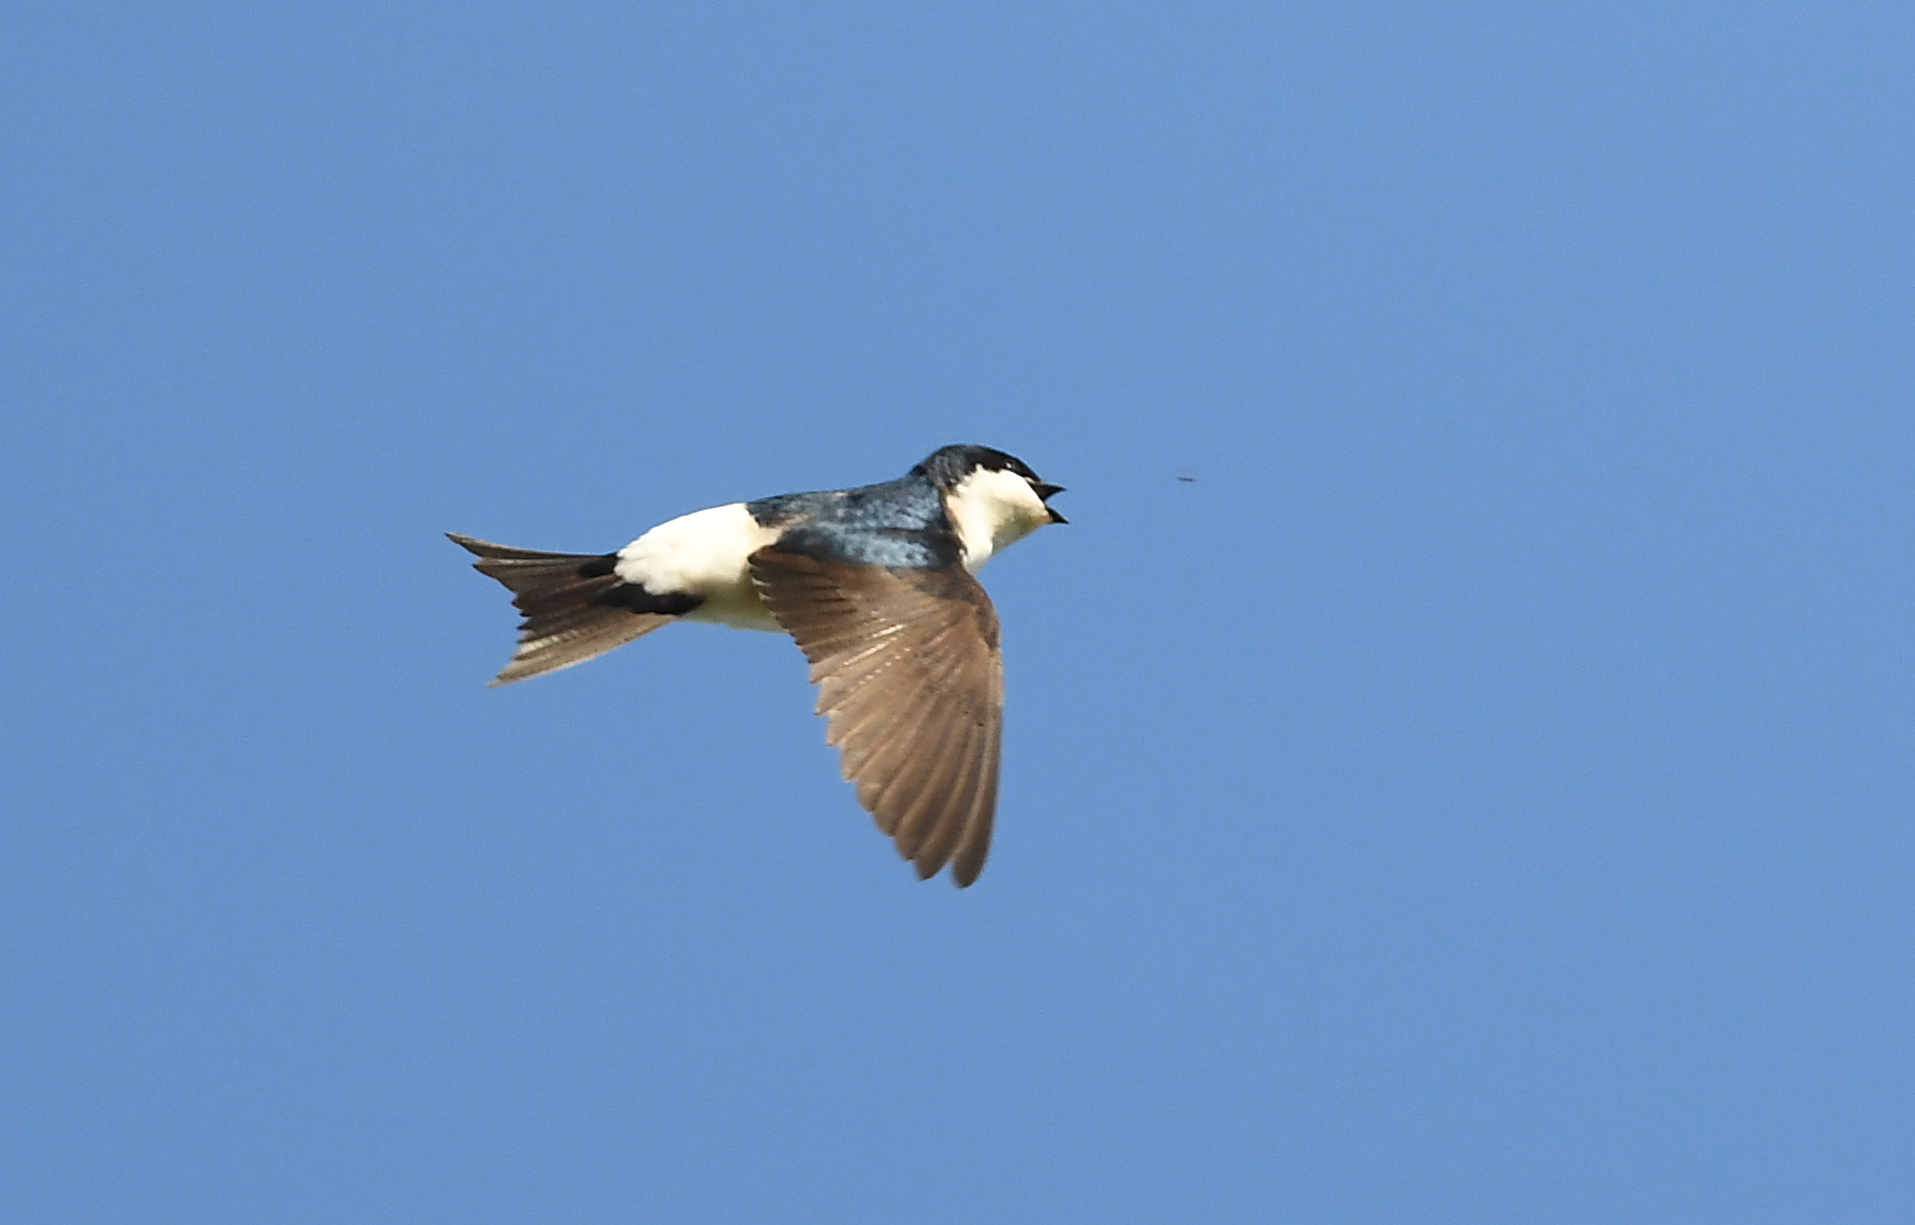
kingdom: Animalia
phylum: Chordata
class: Aves
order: Passeriformes
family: Hirundinidae
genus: Delichon
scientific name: Delichon urbicum
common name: Common house martin
